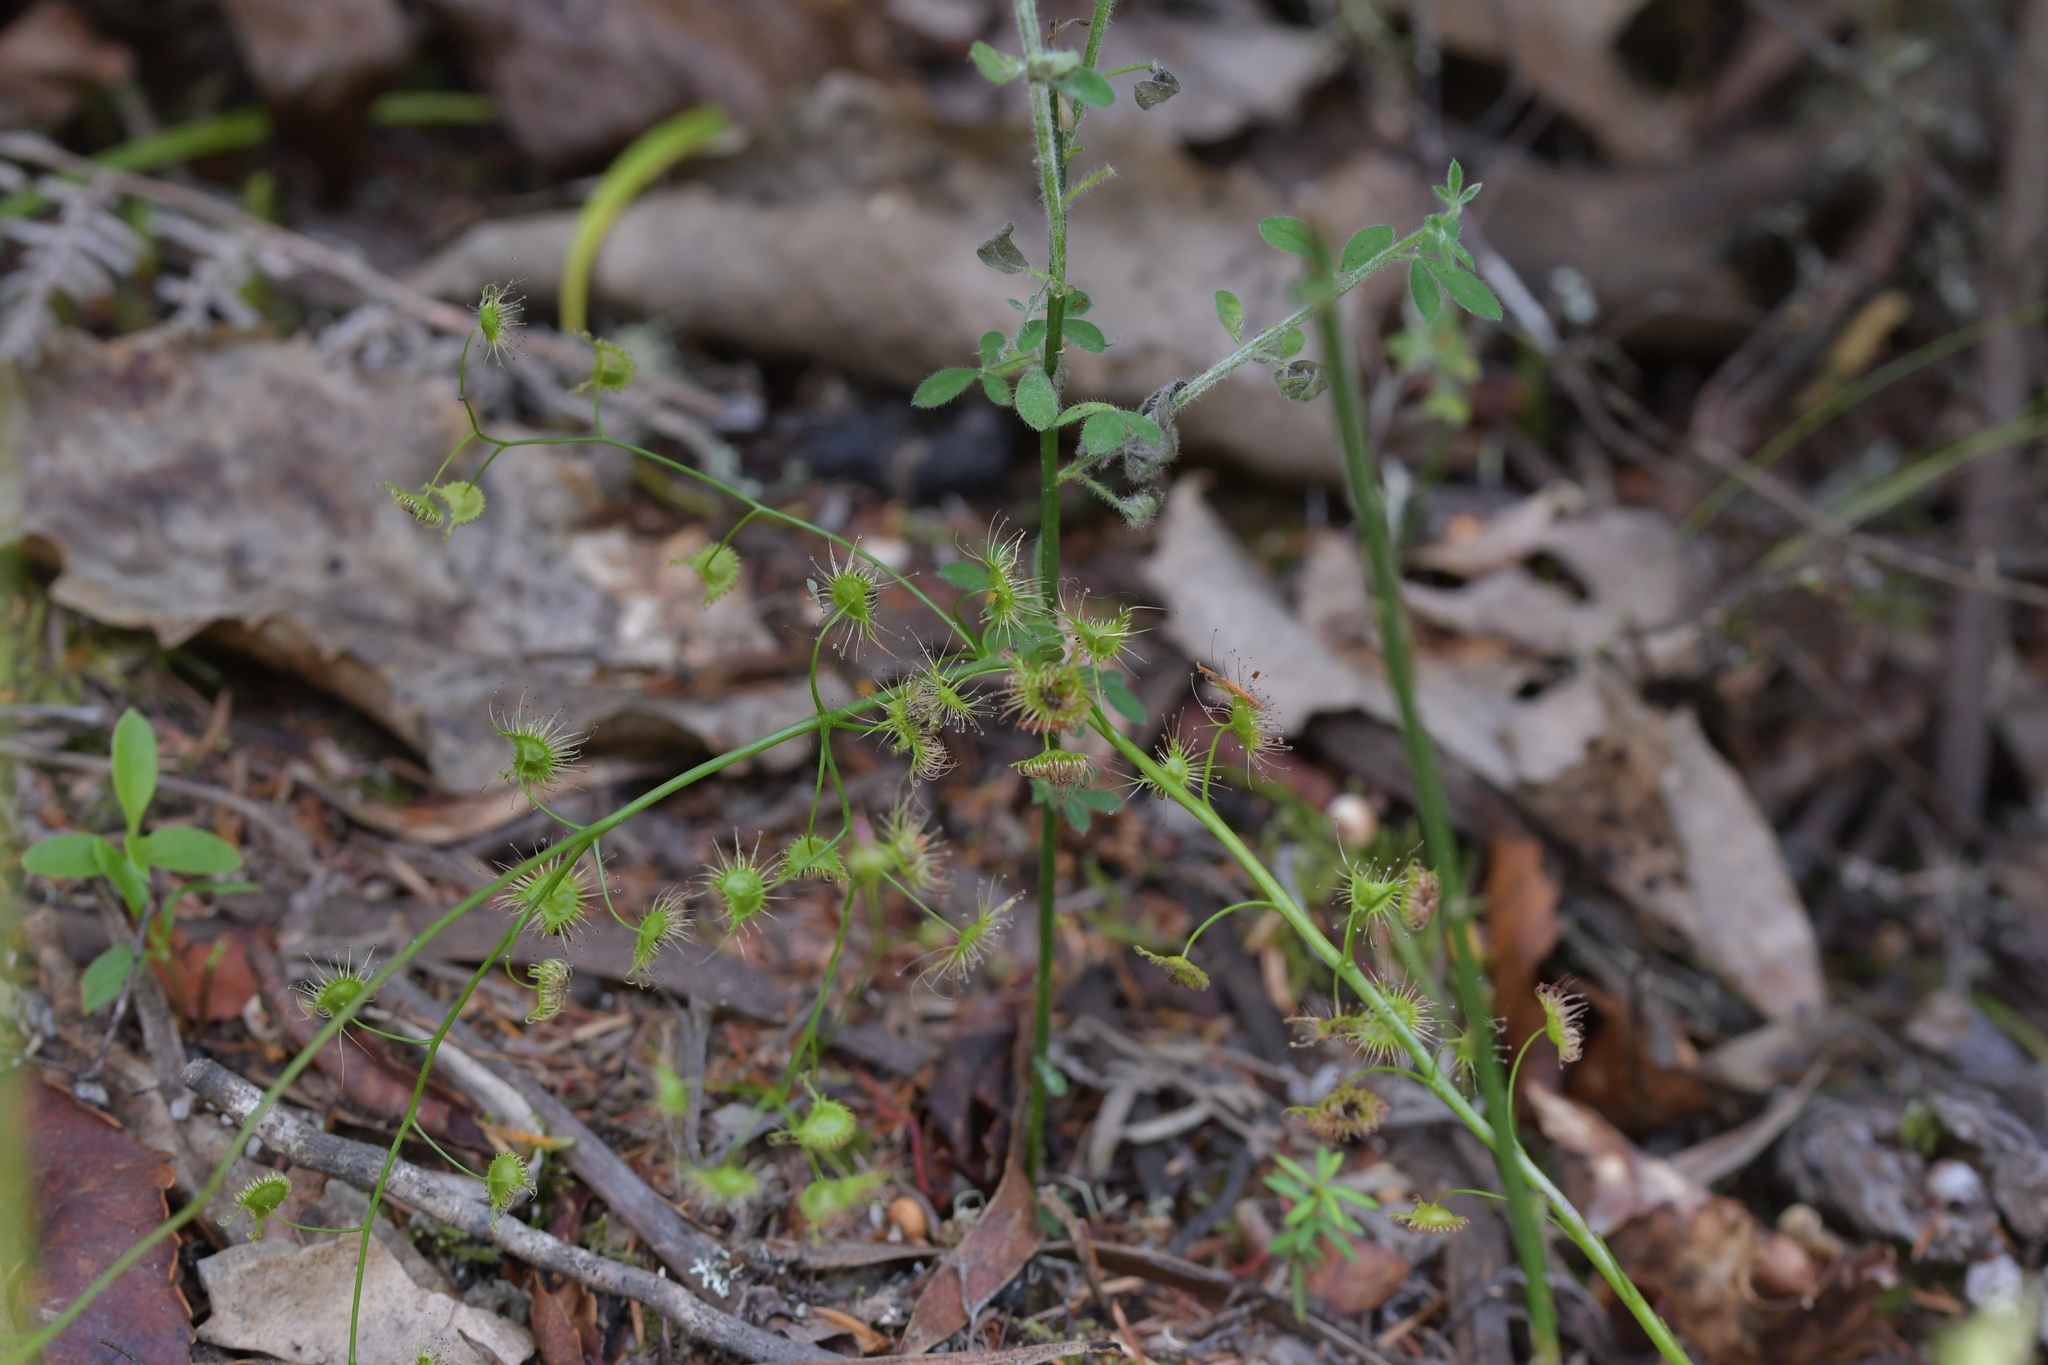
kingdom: Plantae
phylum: Tracheophyta
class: Magnoliopsida
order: Caryophyllales
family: Droseraceae
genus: Drosera
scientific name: Drosera peltata
